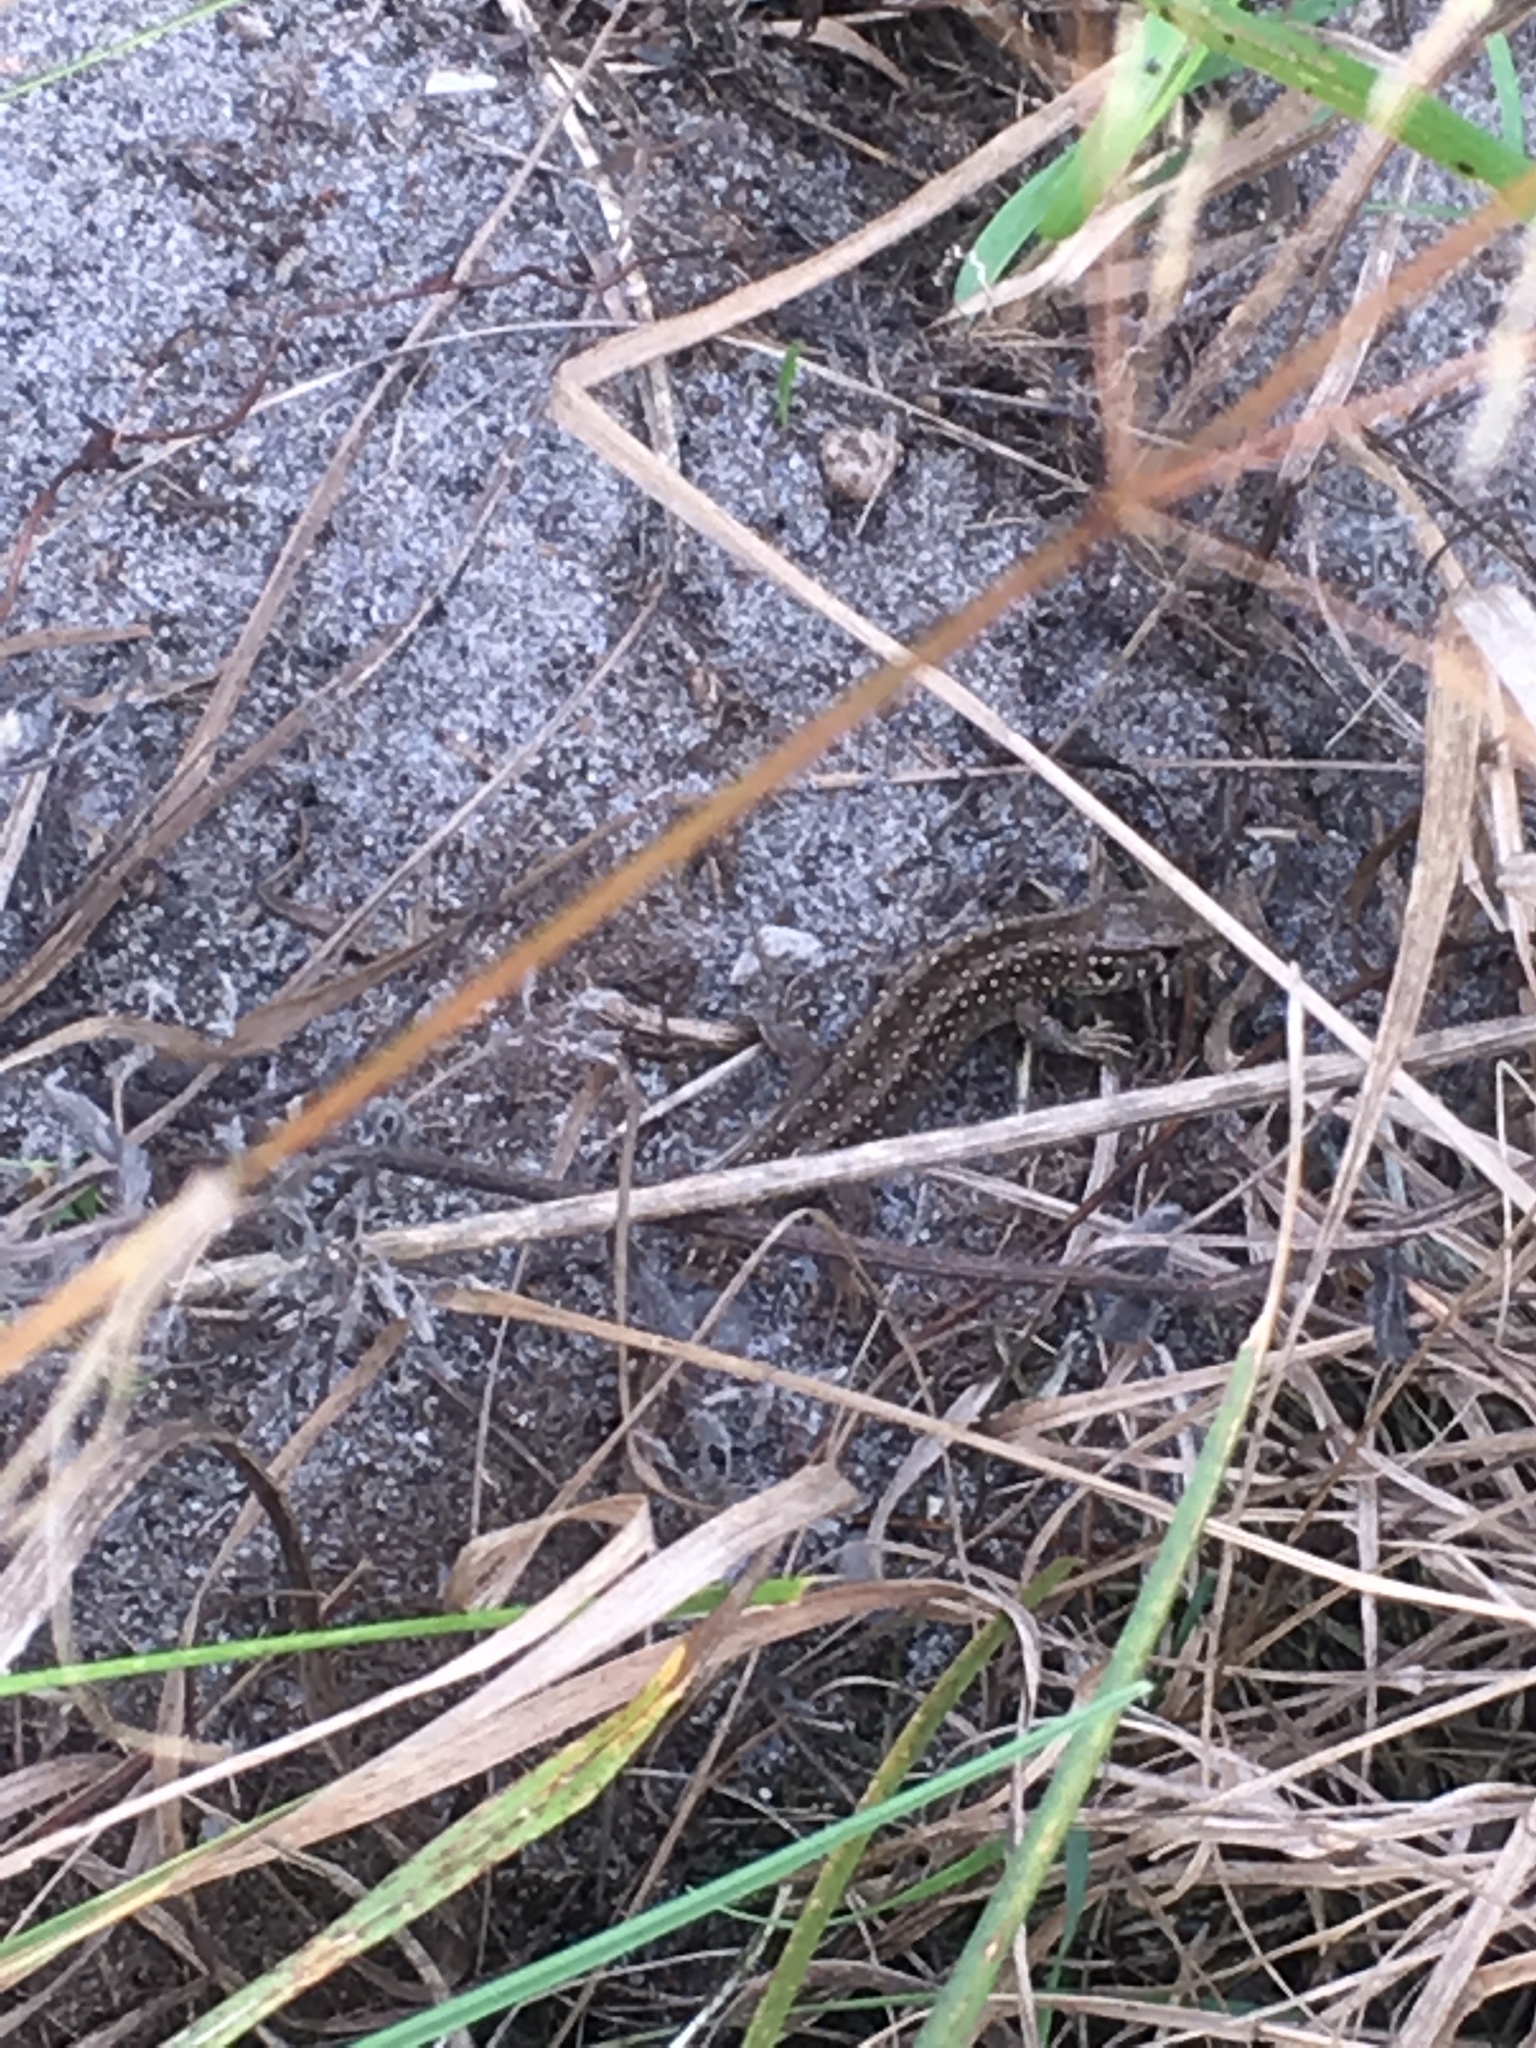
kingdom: Animalia
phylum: Chordata
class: Squamata
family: Lacertidae
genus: Lacerta
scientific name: Lacerta agilis
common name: Sand lizard
